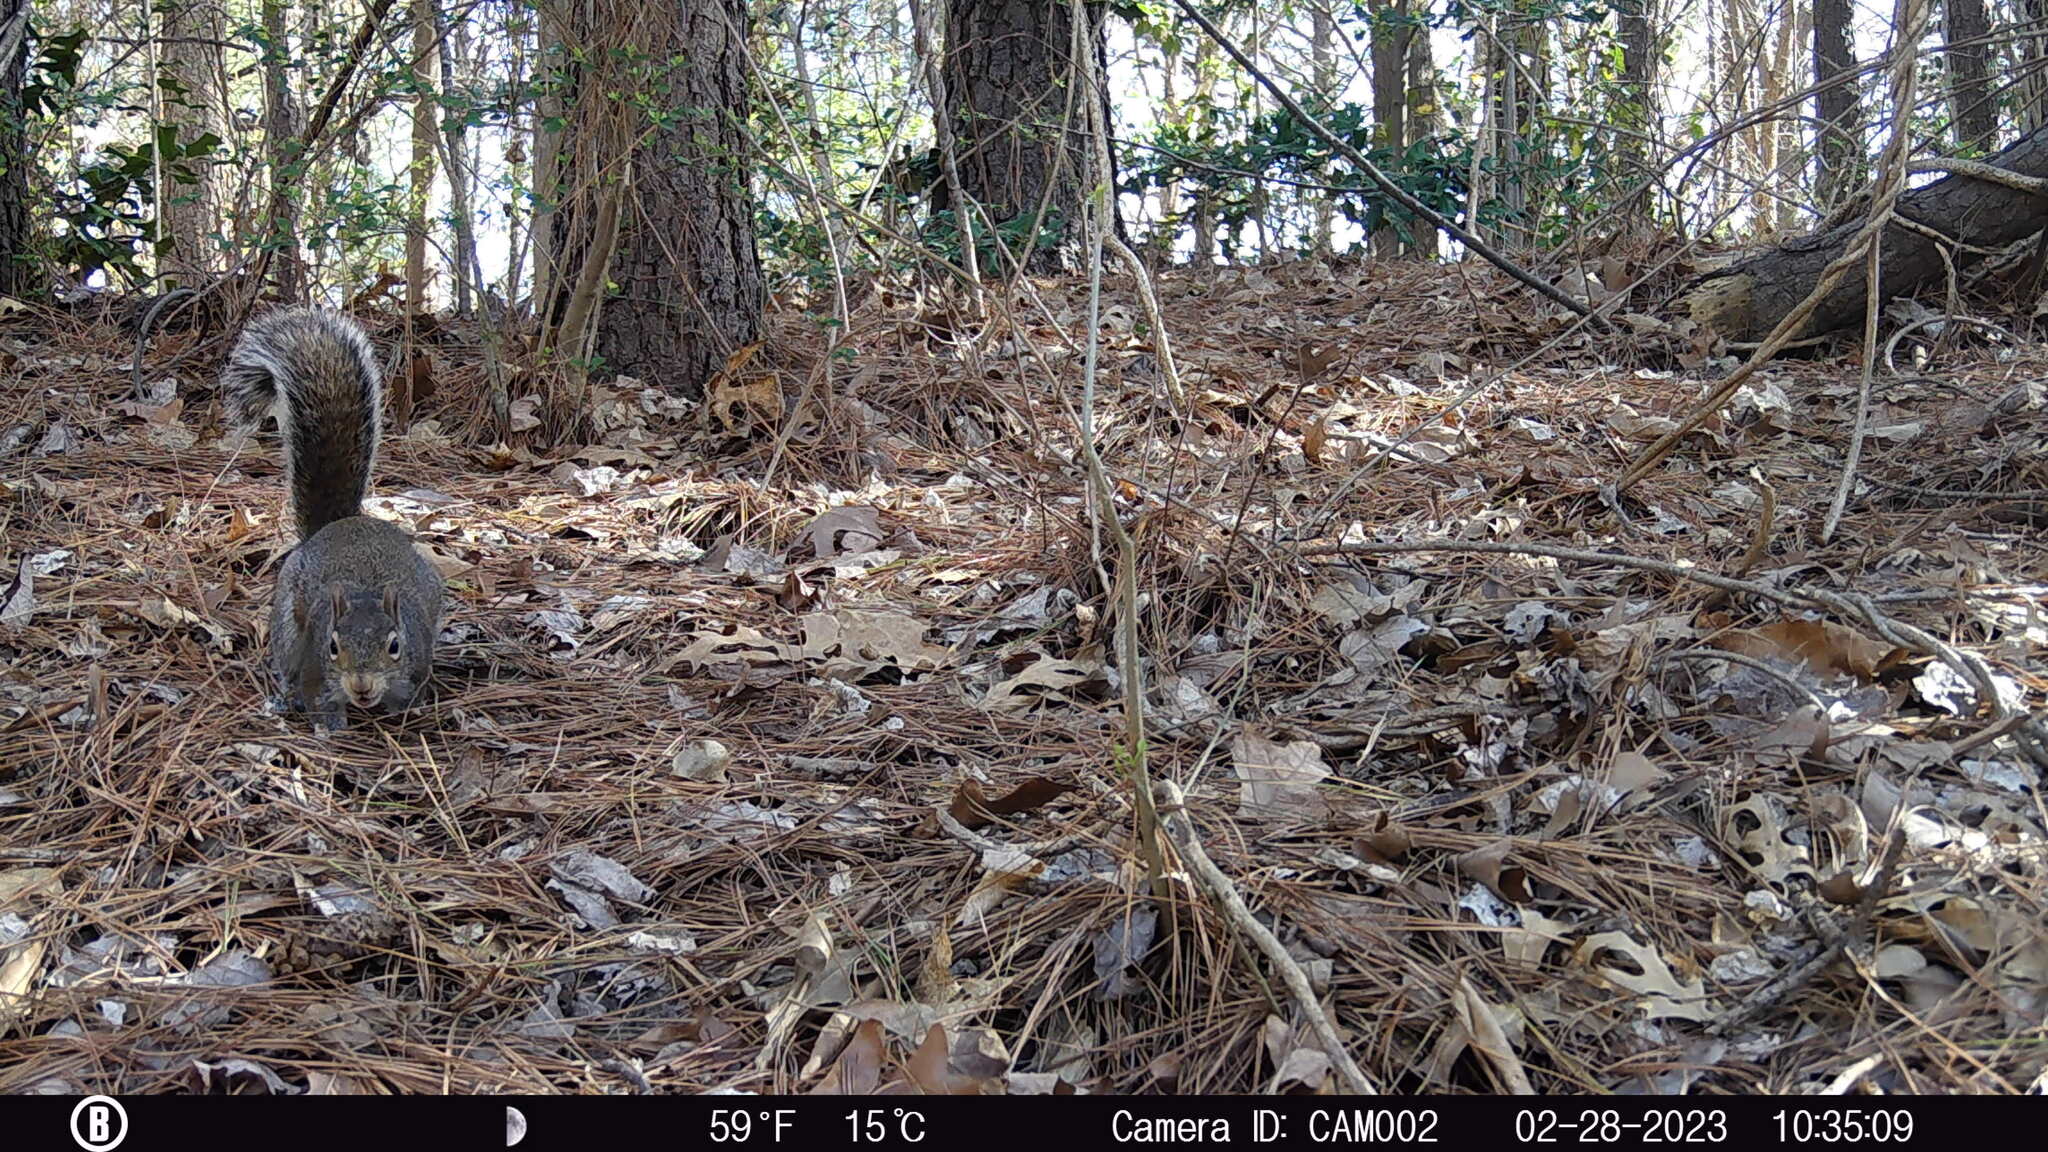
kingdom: Animalia
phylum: Chordata
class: Mammalia
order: Rodentia
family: Sciuridae
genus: Sciurus
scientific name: Sciurus carolinensis
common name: Eastern gray squirrel
